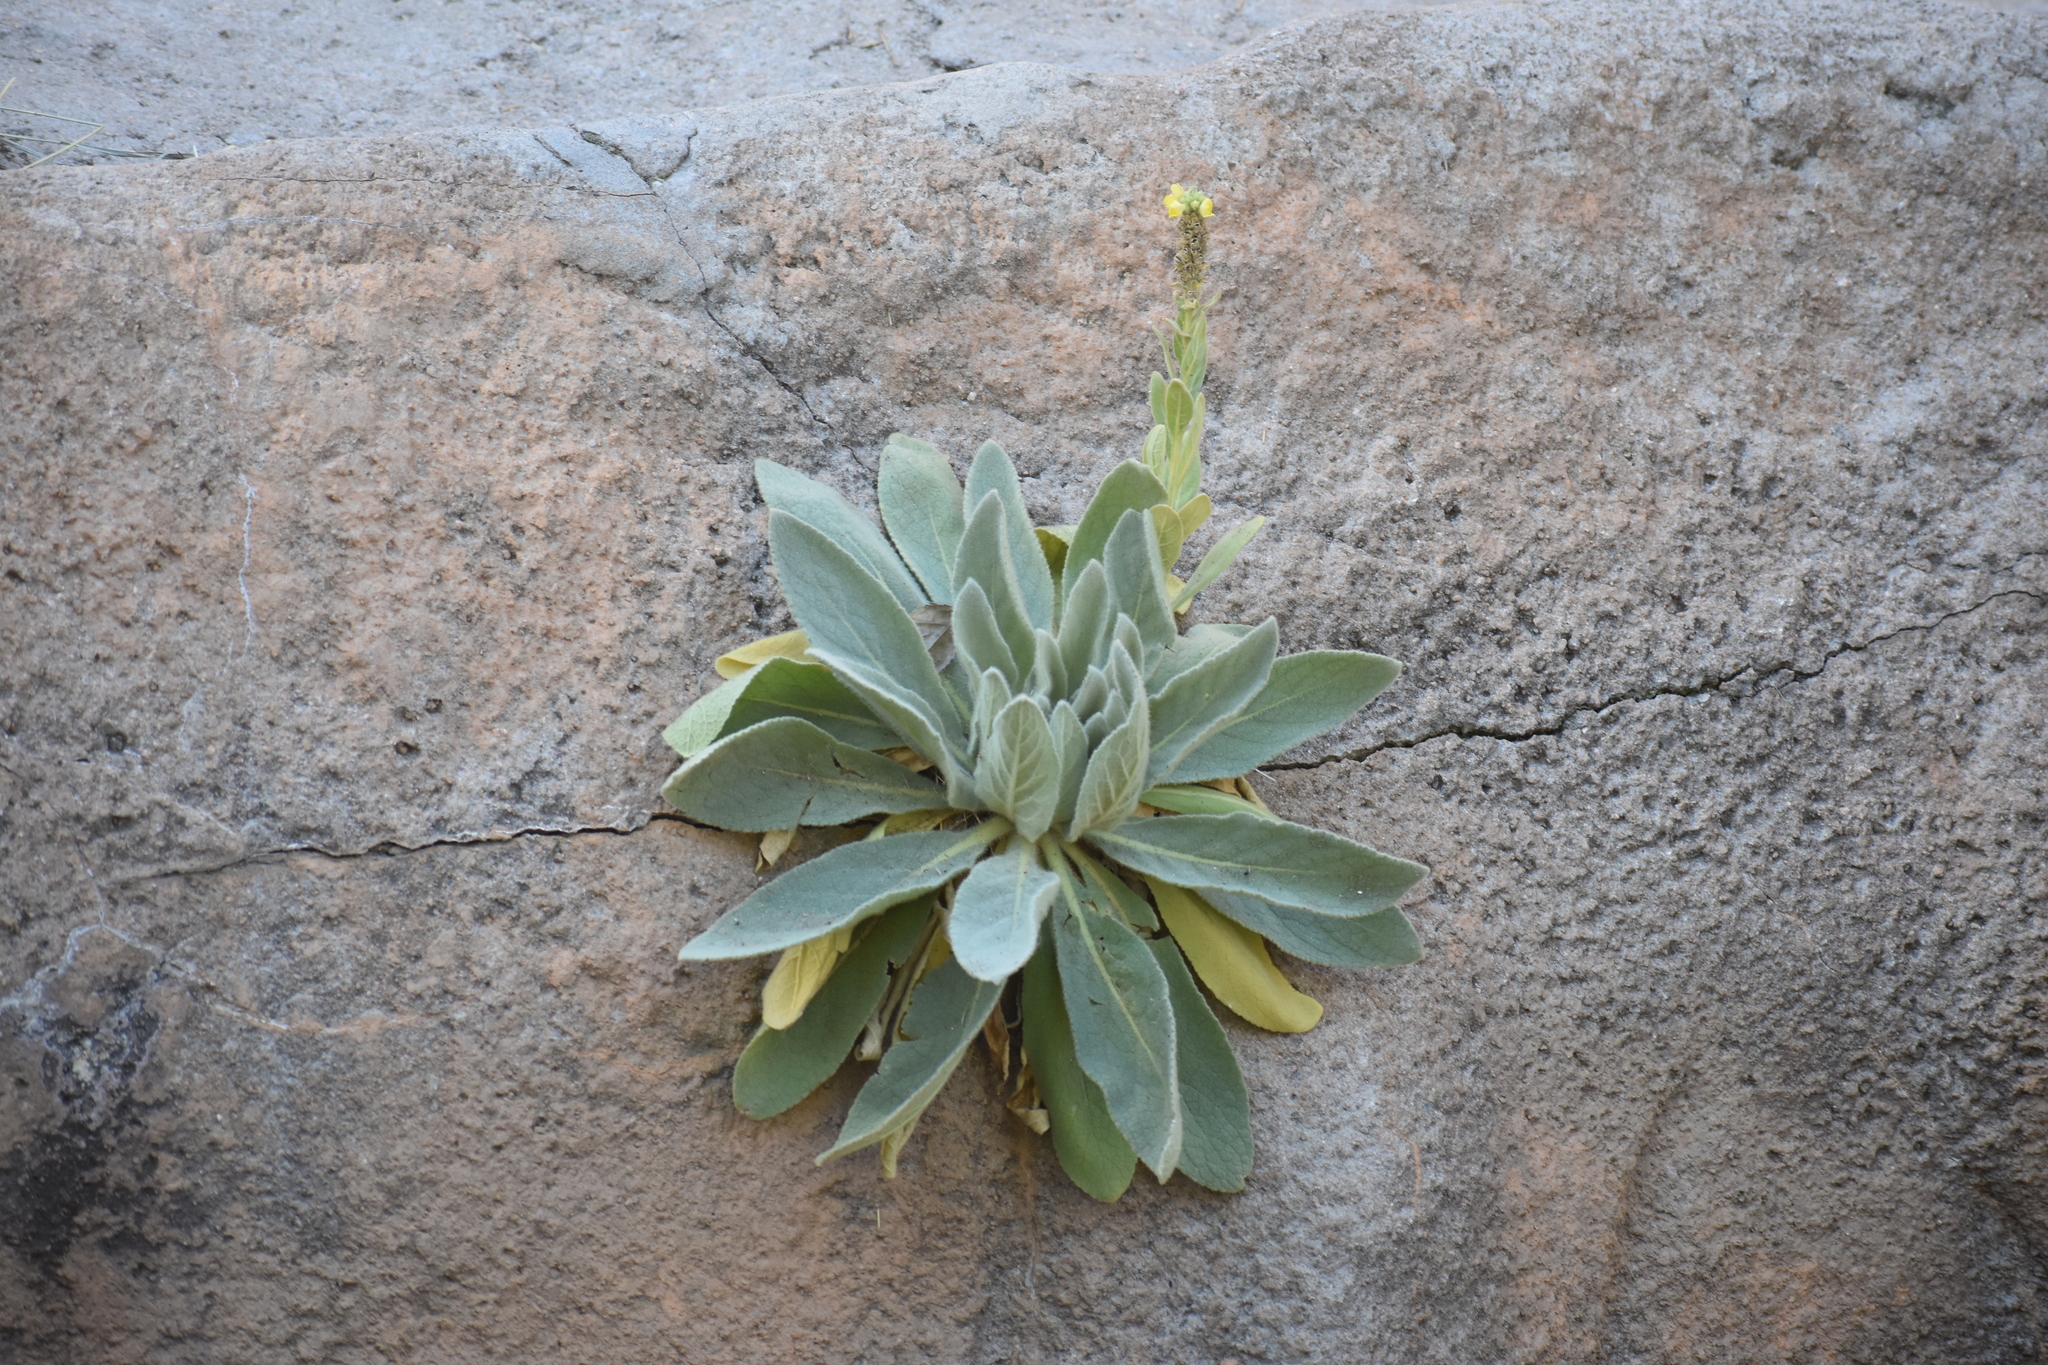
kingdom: Plantae
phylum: Tracheophyta
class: Magnoliopsida
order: Lamiales
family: Scrophulariaceae
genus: Verbascum
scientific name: Verbascum thapsus
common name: Common mullein
